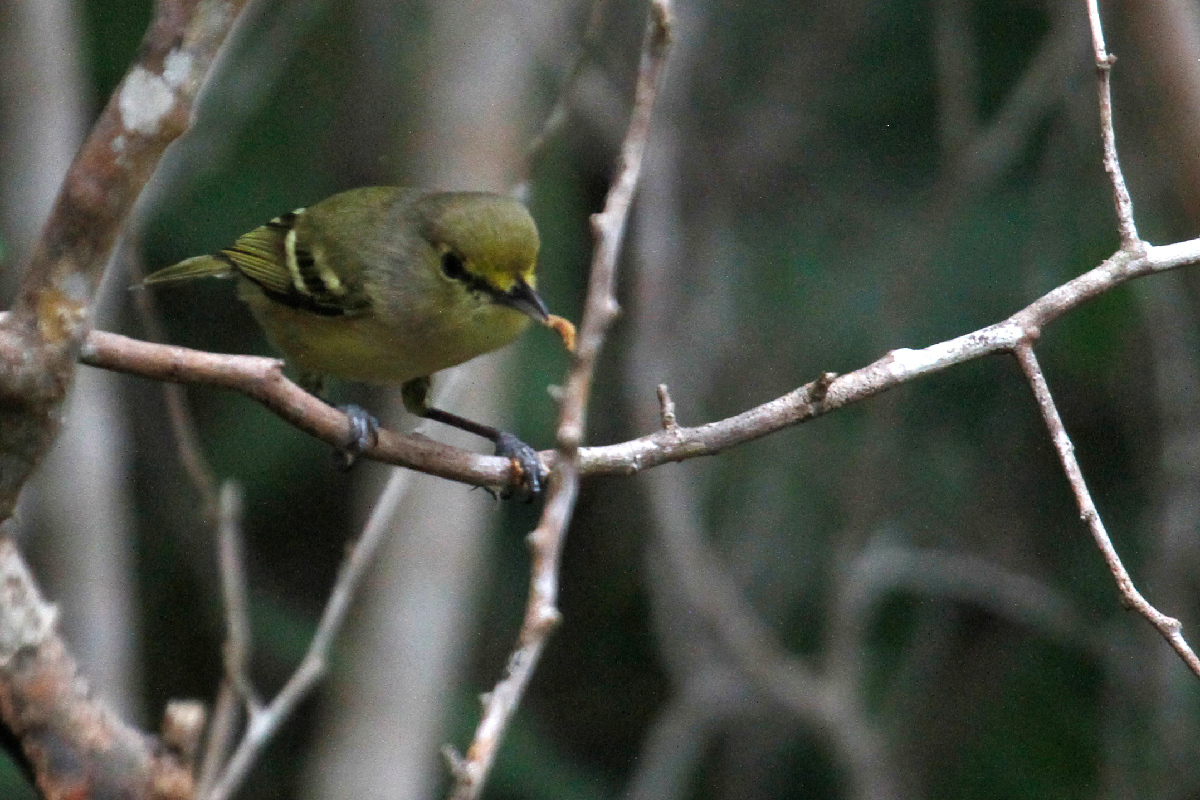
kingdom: Animalia
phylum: Chordata
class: Aves
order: Passeriformes
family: Vireonidae
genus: Vireo
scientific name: Vireo crassirostris
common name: Thick-billed vireo
